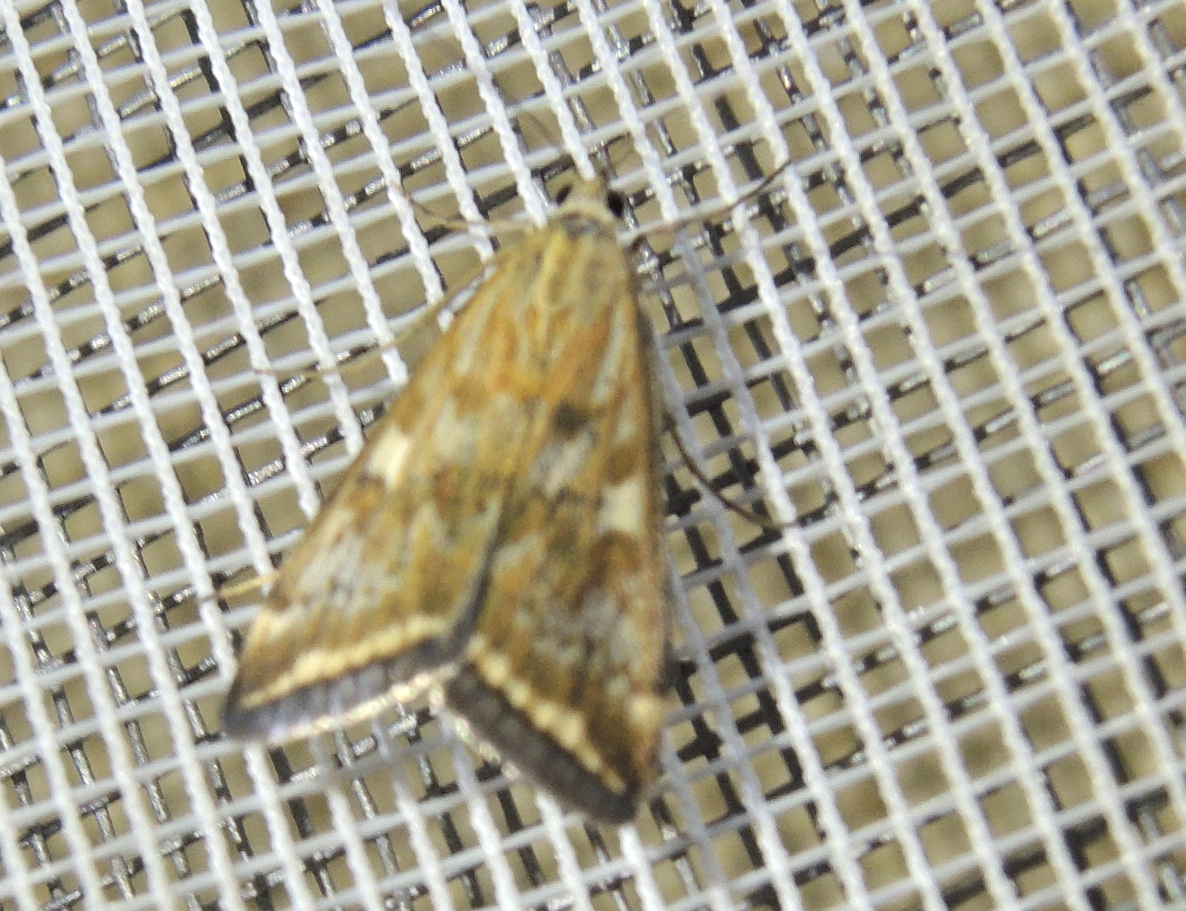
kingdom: Animalia
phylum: Arthropoda
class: Insecta
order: Lepidoptera
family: Crambidae
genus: Loxostege
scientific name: Loxostege sticticalis
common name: Crambid moth
